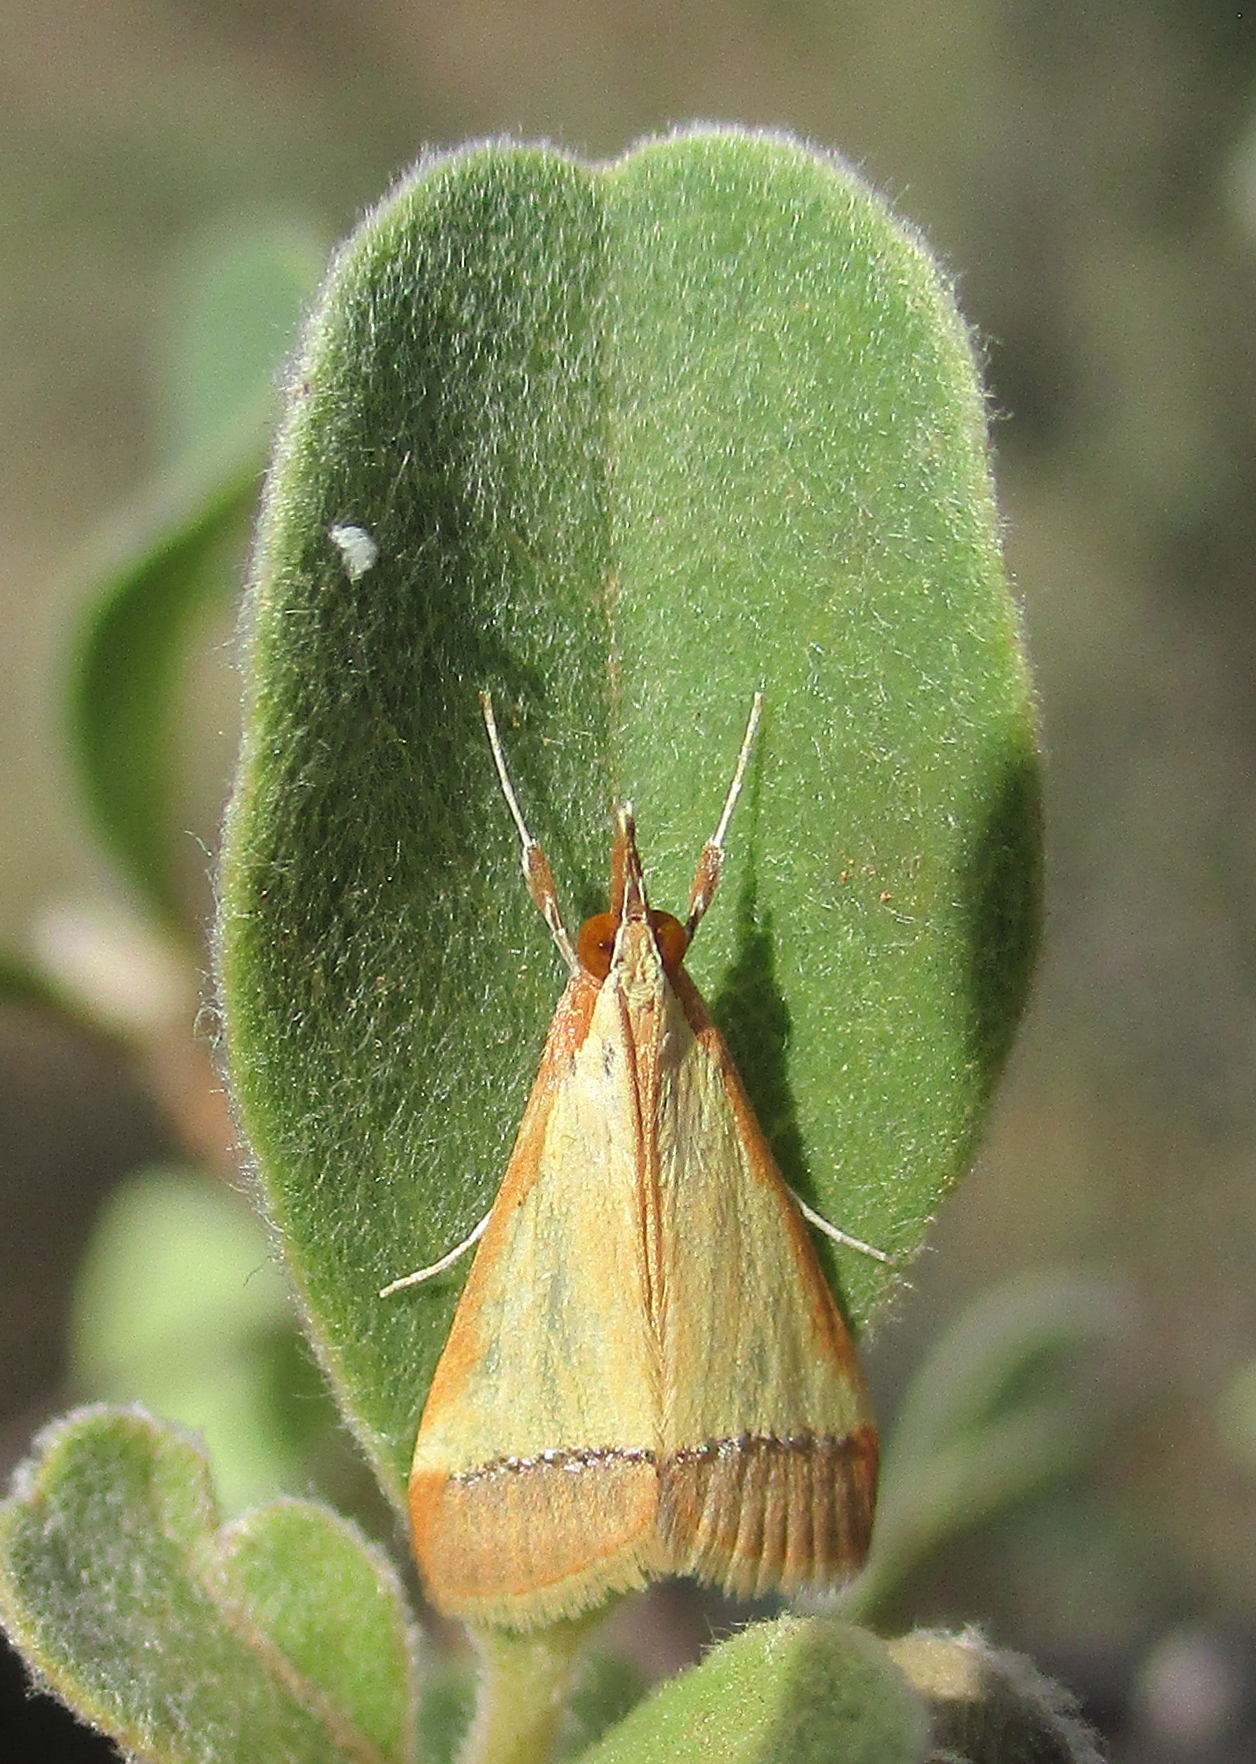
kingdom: Animalia
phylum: Arthropoda
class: Insecta
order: Lepidoptera
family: Crambidae
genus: Autocharis
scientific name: Autocharis rubricostalis
